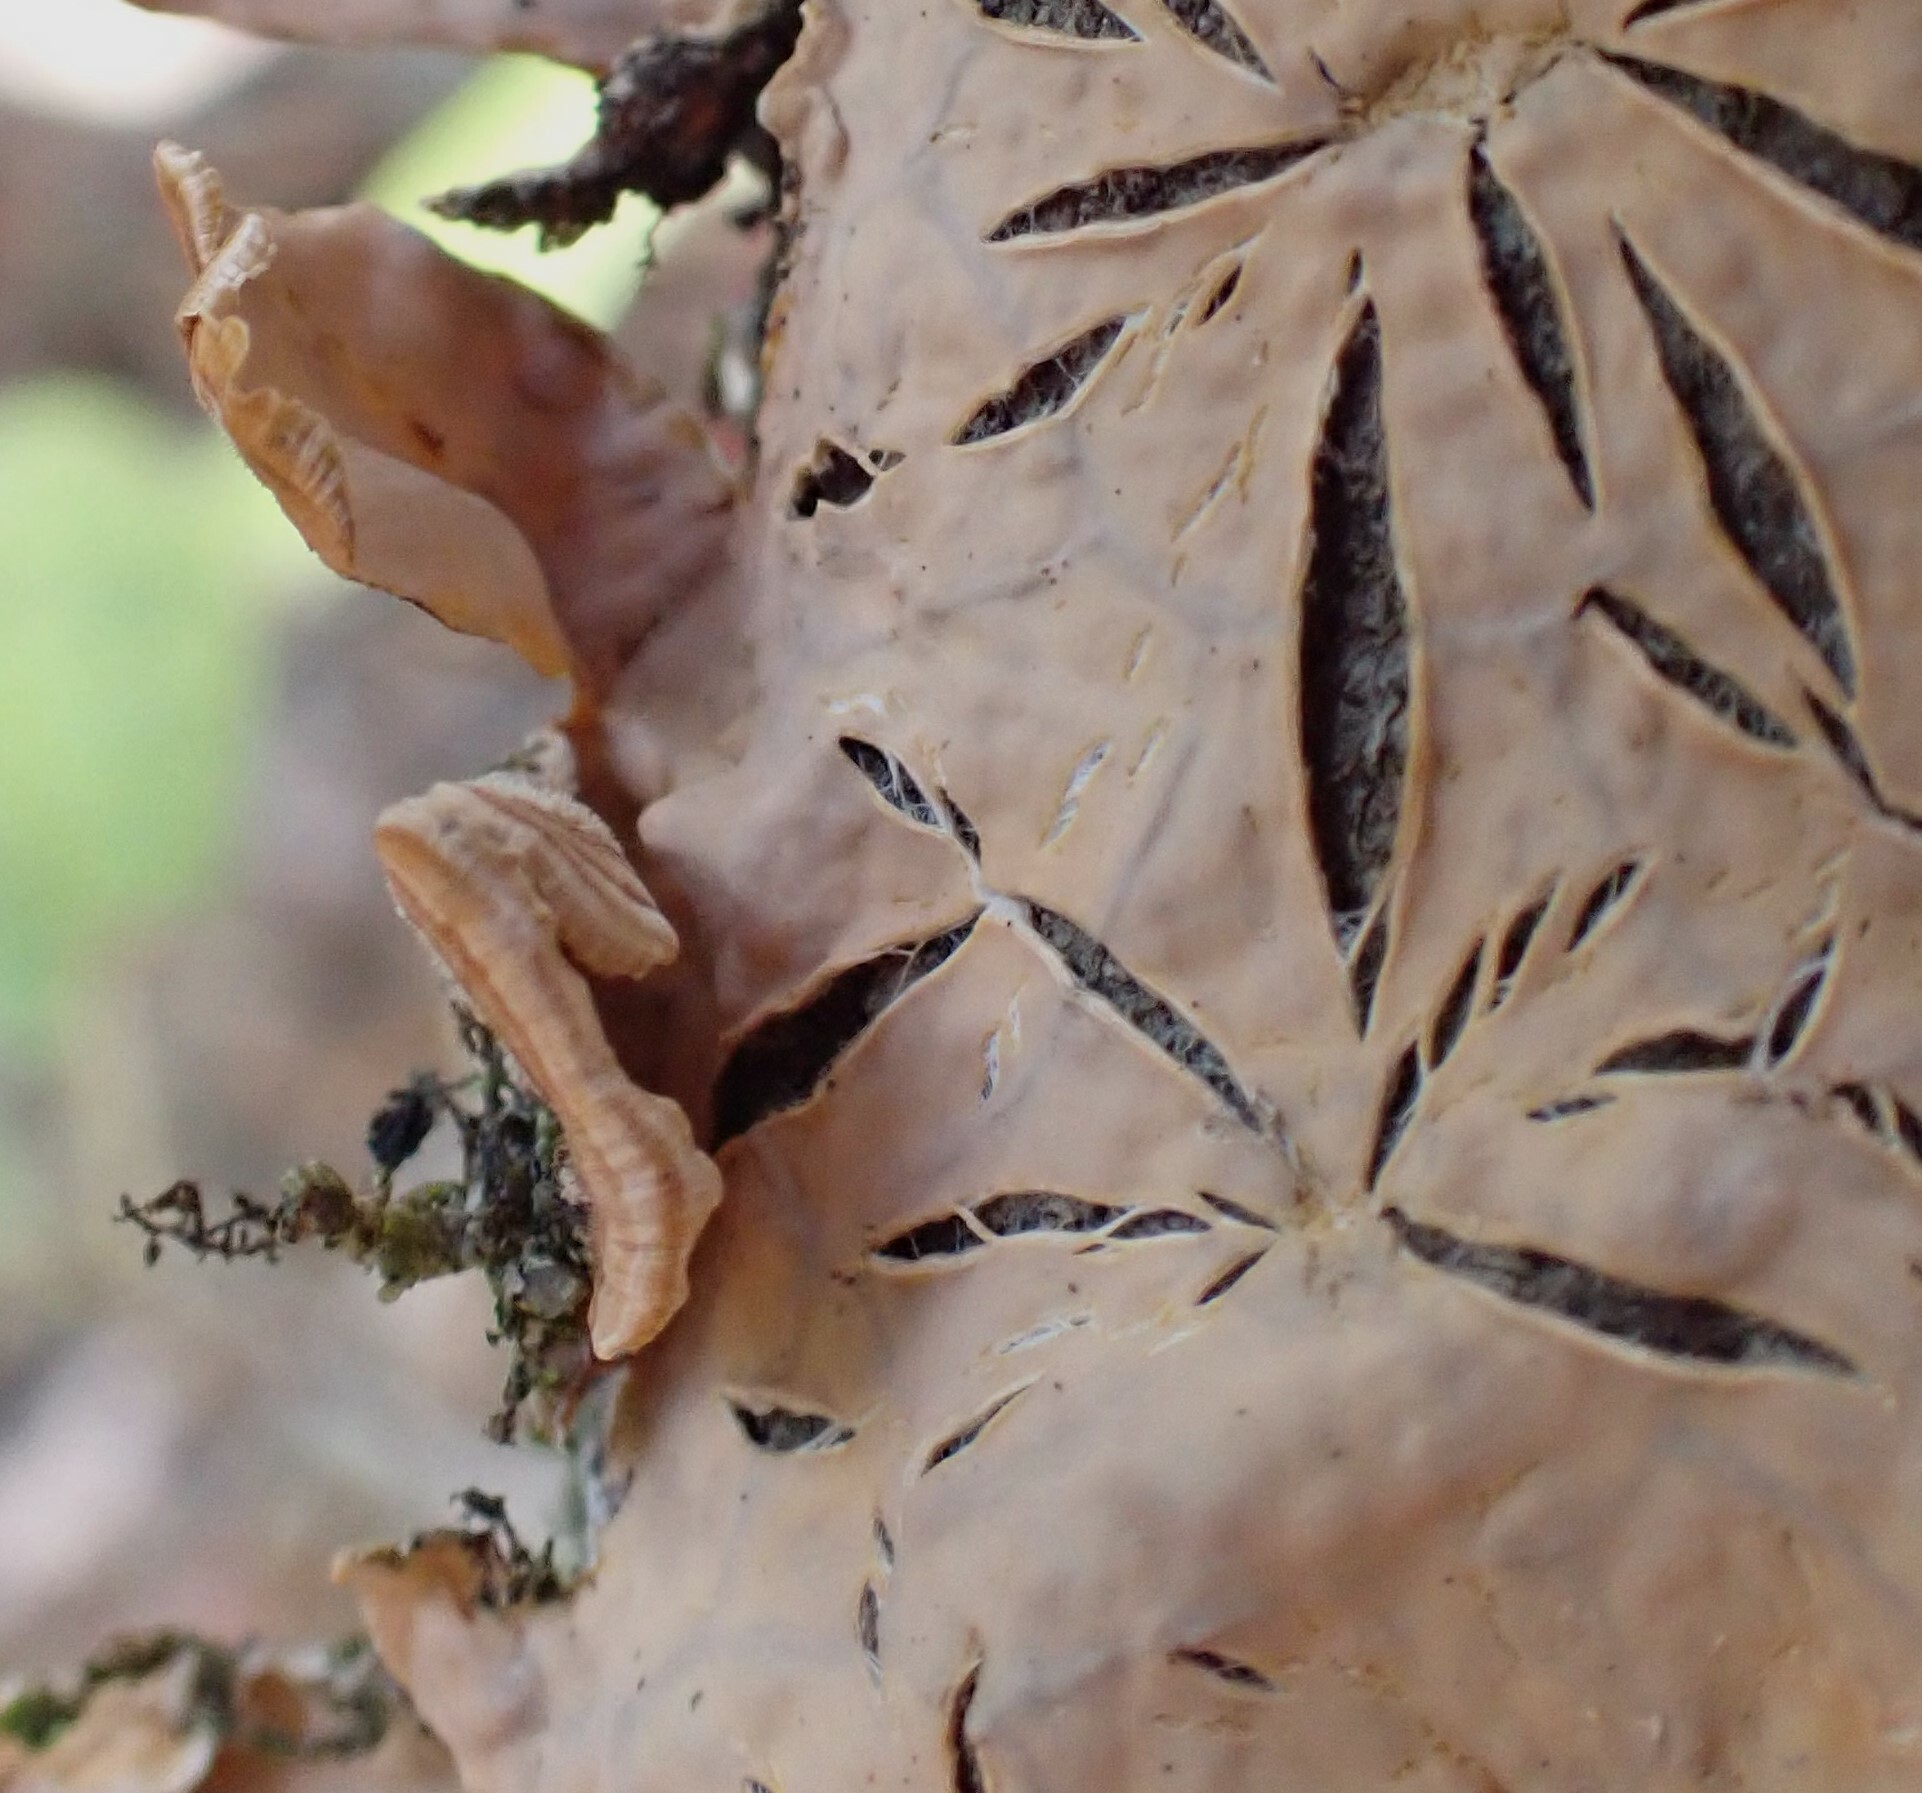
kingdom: Fungi
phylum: Basidiomycota
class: Agaricomycetes
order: Russulales
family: Stereaceae
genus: Stereum
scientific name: Stereum striatum
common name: Silky parchment
